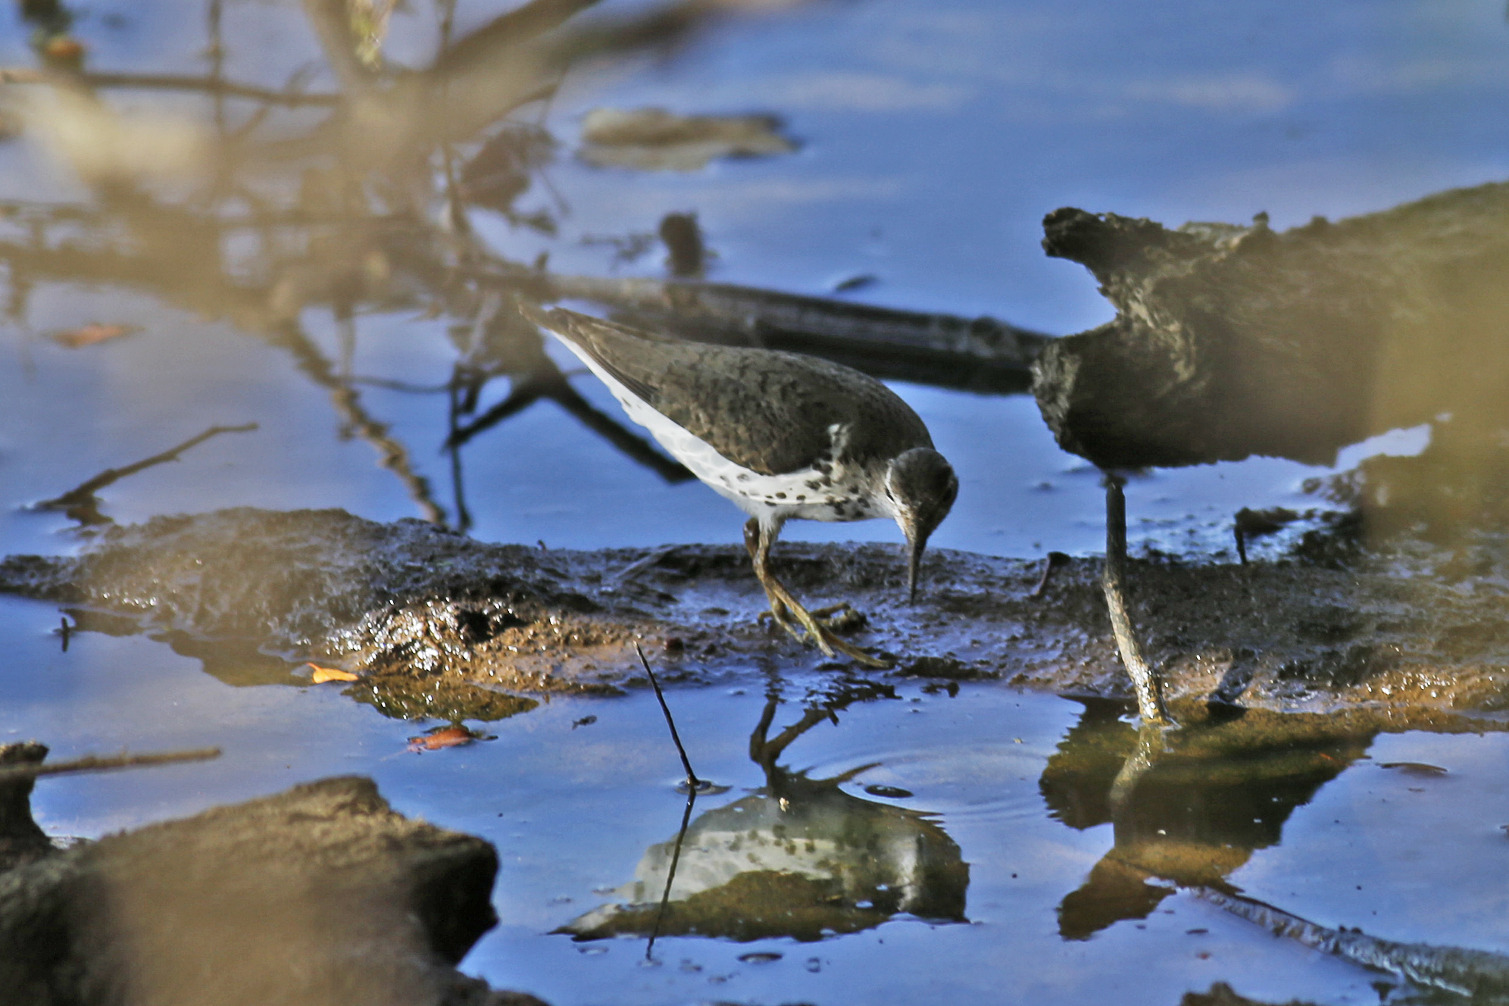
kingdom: Animalia
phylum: Chordata
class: Aves
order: Charadriiformes
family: Scolopacidae
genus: Actitis
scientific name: Actitis macularius
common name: Spotted sandpiper
